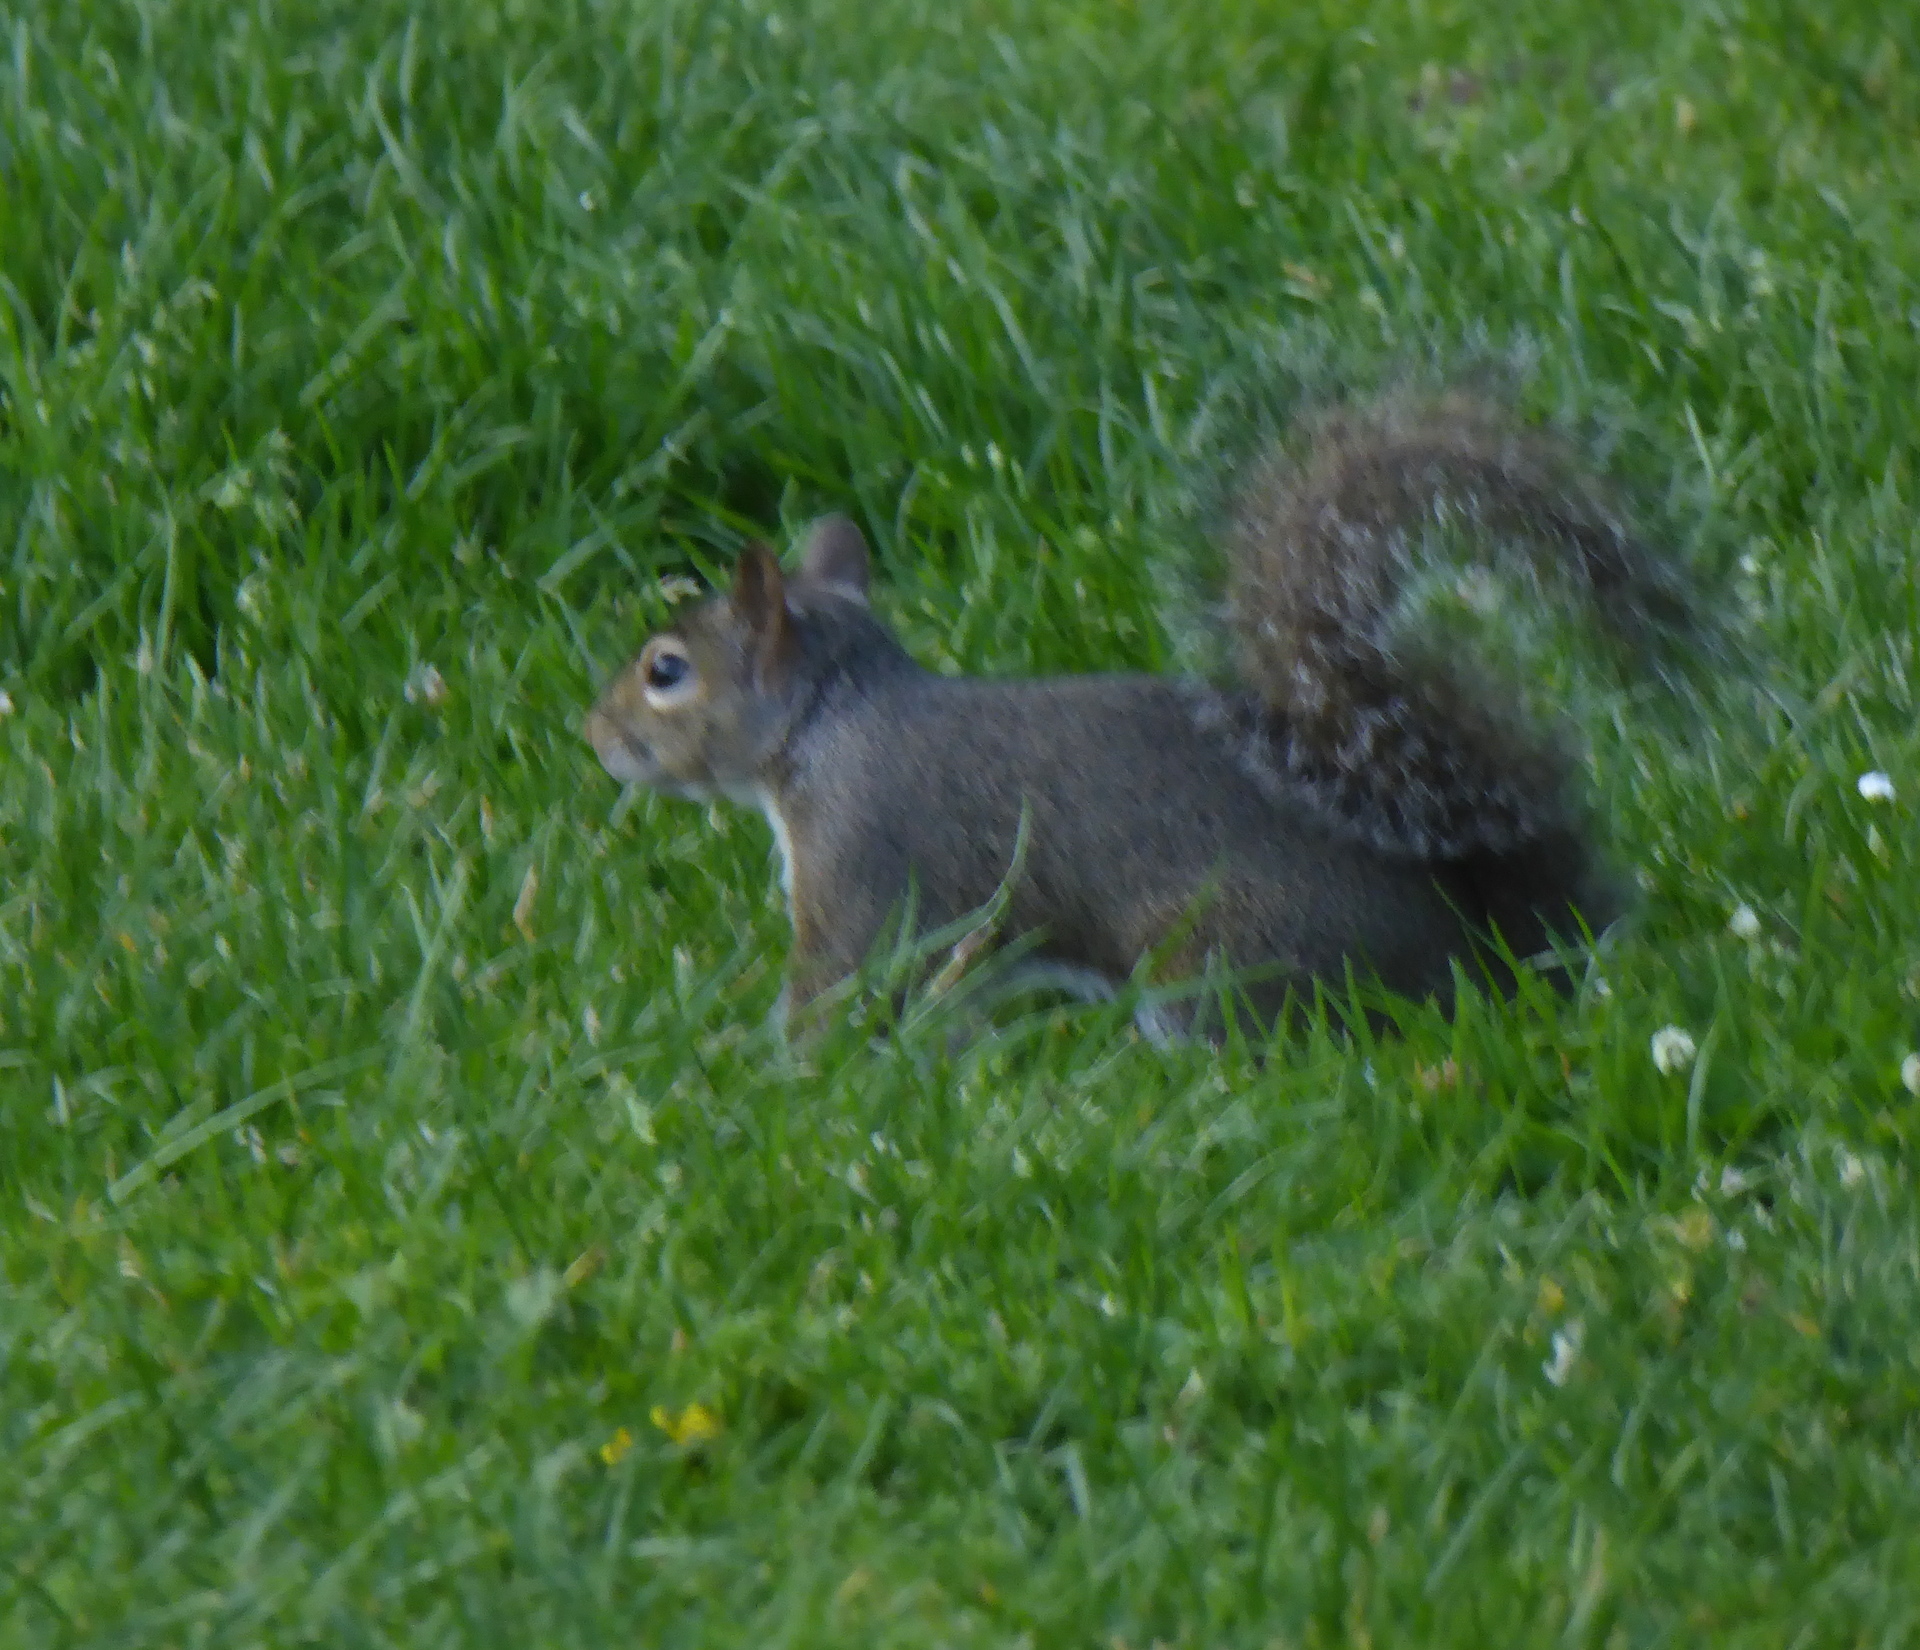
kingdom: Animalia
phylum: Chordata
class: Mammalia
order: Rodentia
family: Sciuridae
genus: Sciurus
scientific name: Sciurus carolinensis
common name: Eastern gray squirrel
